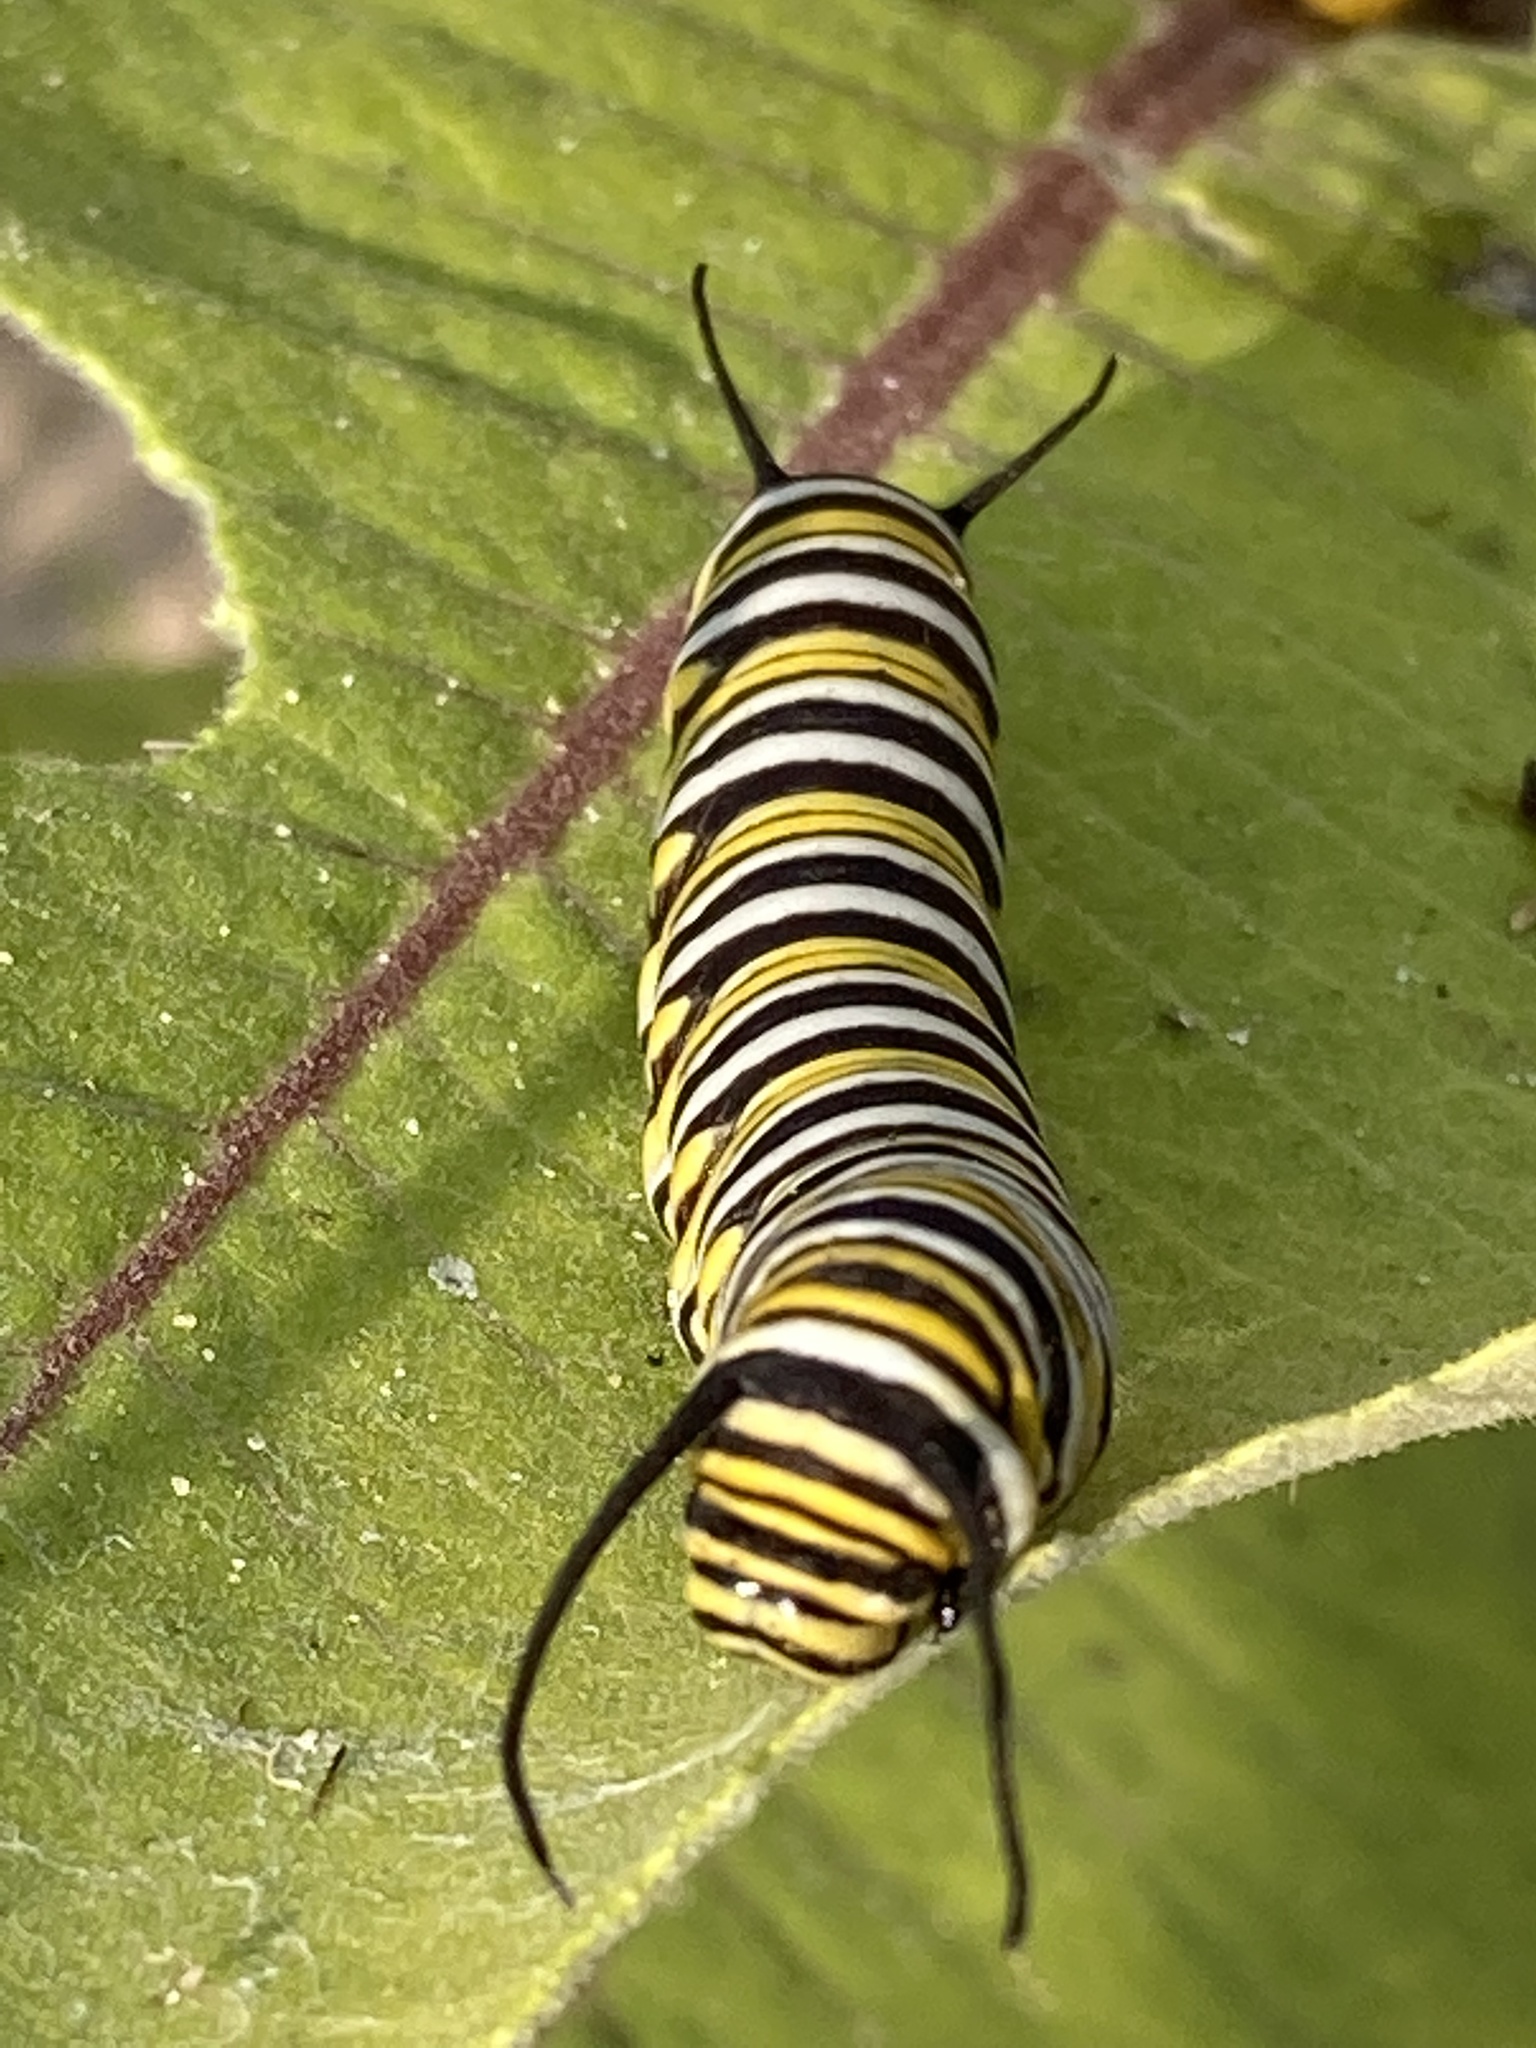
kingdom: Animalia
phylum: Arthropoda
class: Insecta
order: Lepidoptera
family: Nymphalidae
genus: Danaus
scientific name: Danaus plexippus
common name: Monarch
